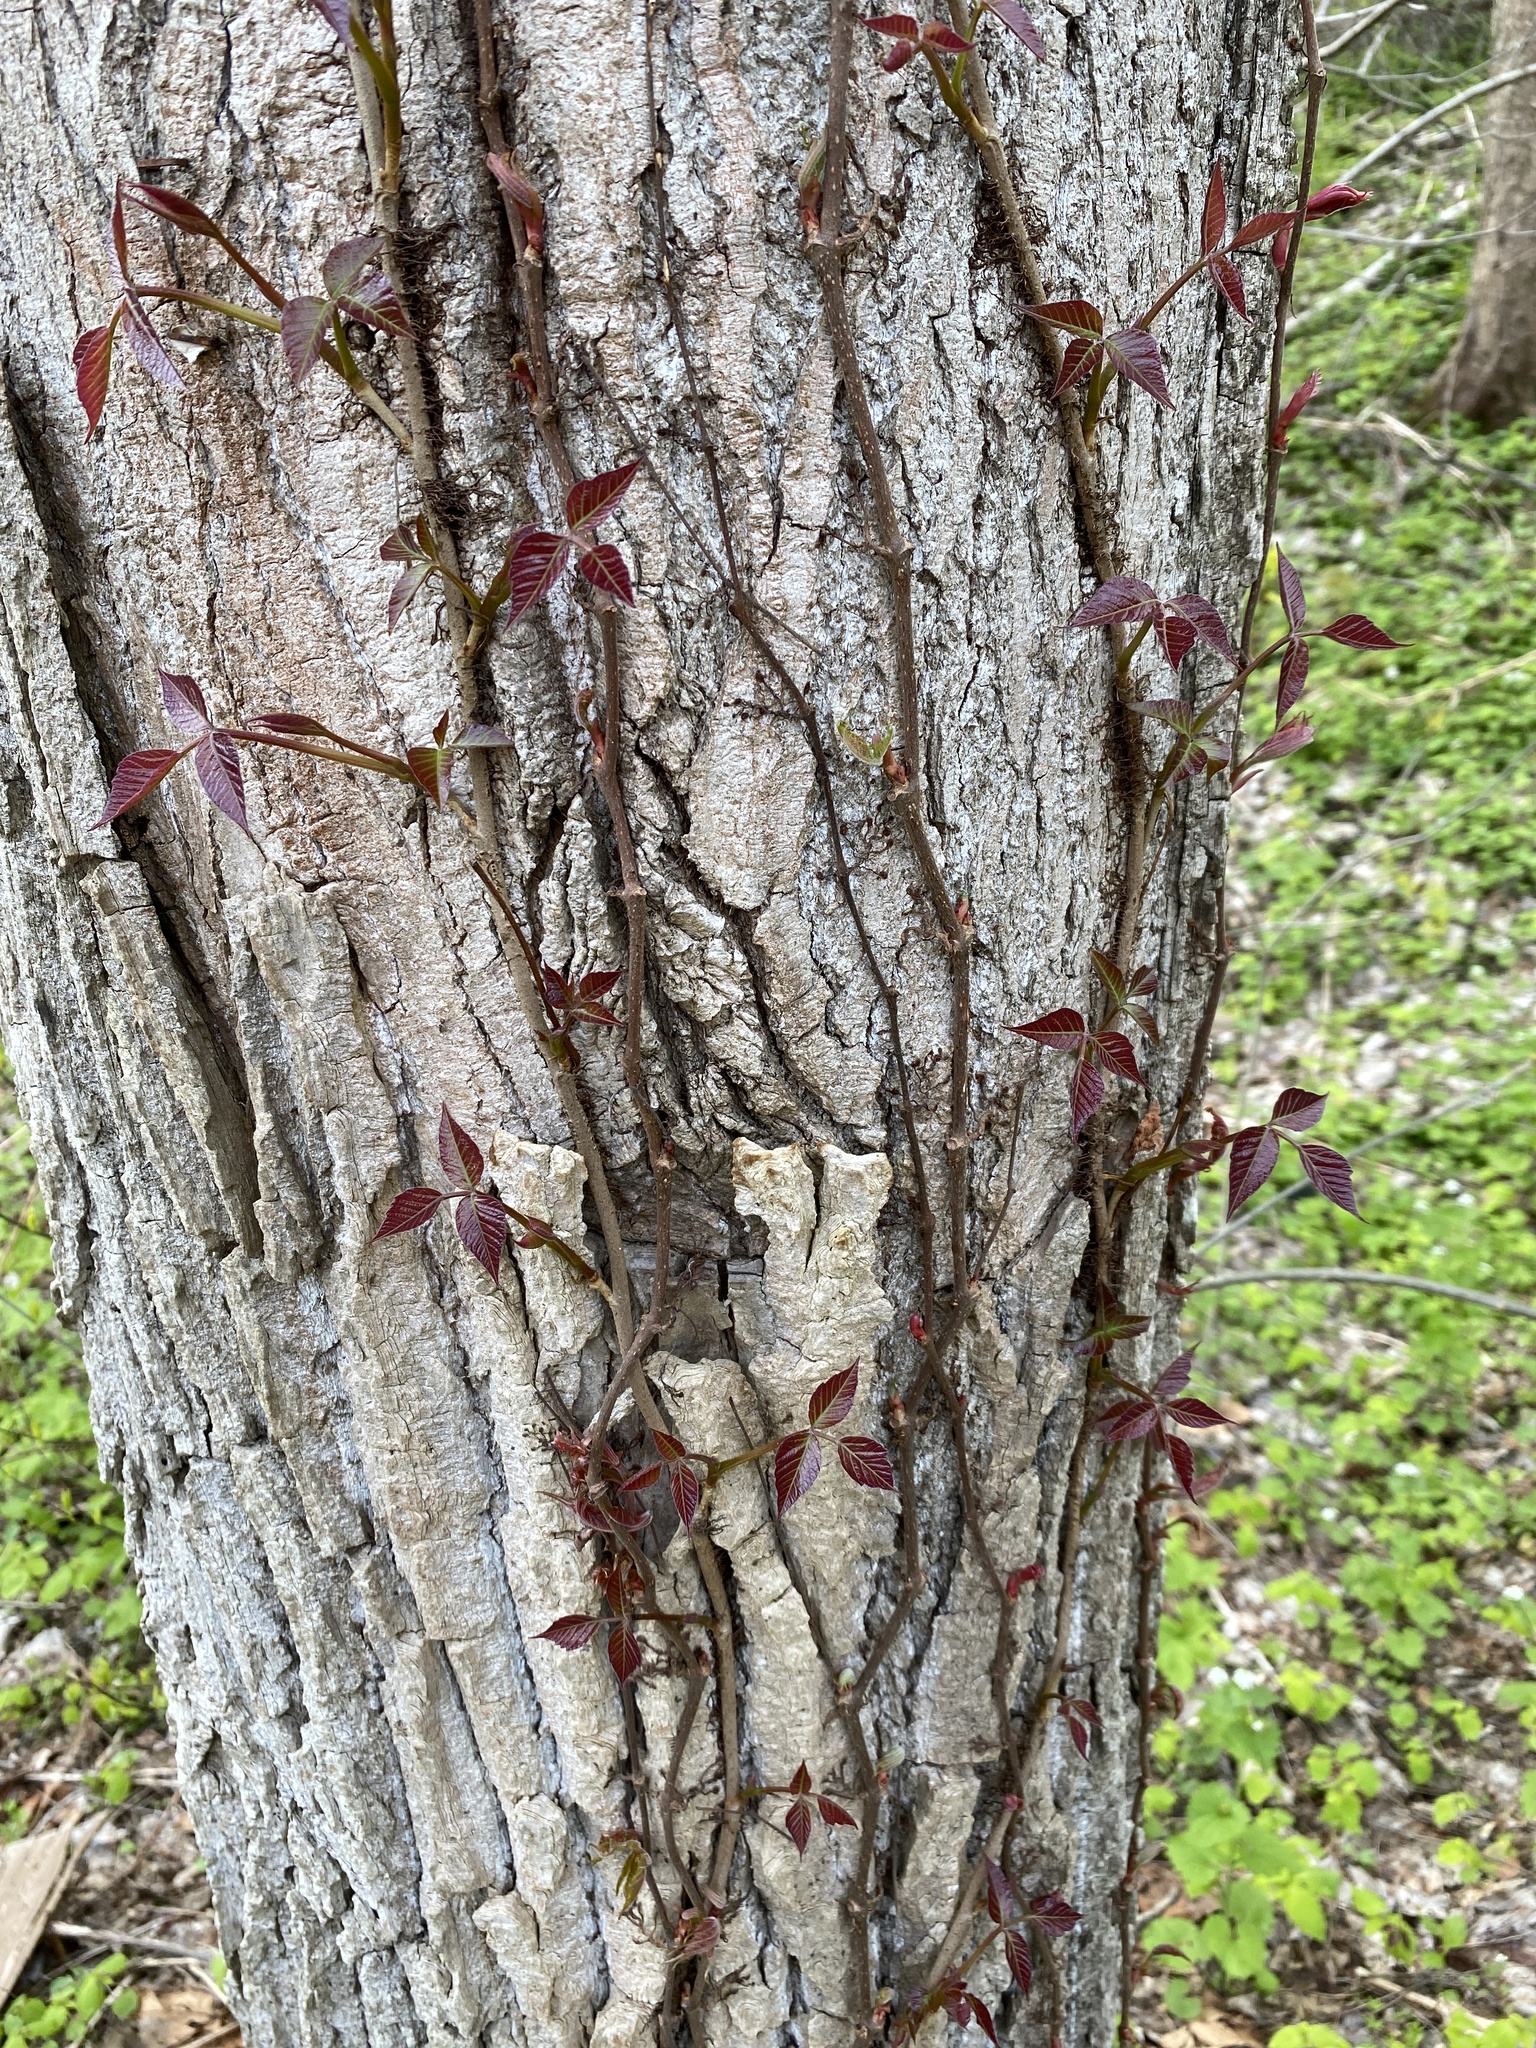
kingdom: Plantae
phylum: Tracheophyta
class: Magnoliopsida
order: Sapindales
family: Anacardiaceae
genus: Toxicodendron
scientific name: Toxicodendron radicans
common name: Poison ivy
